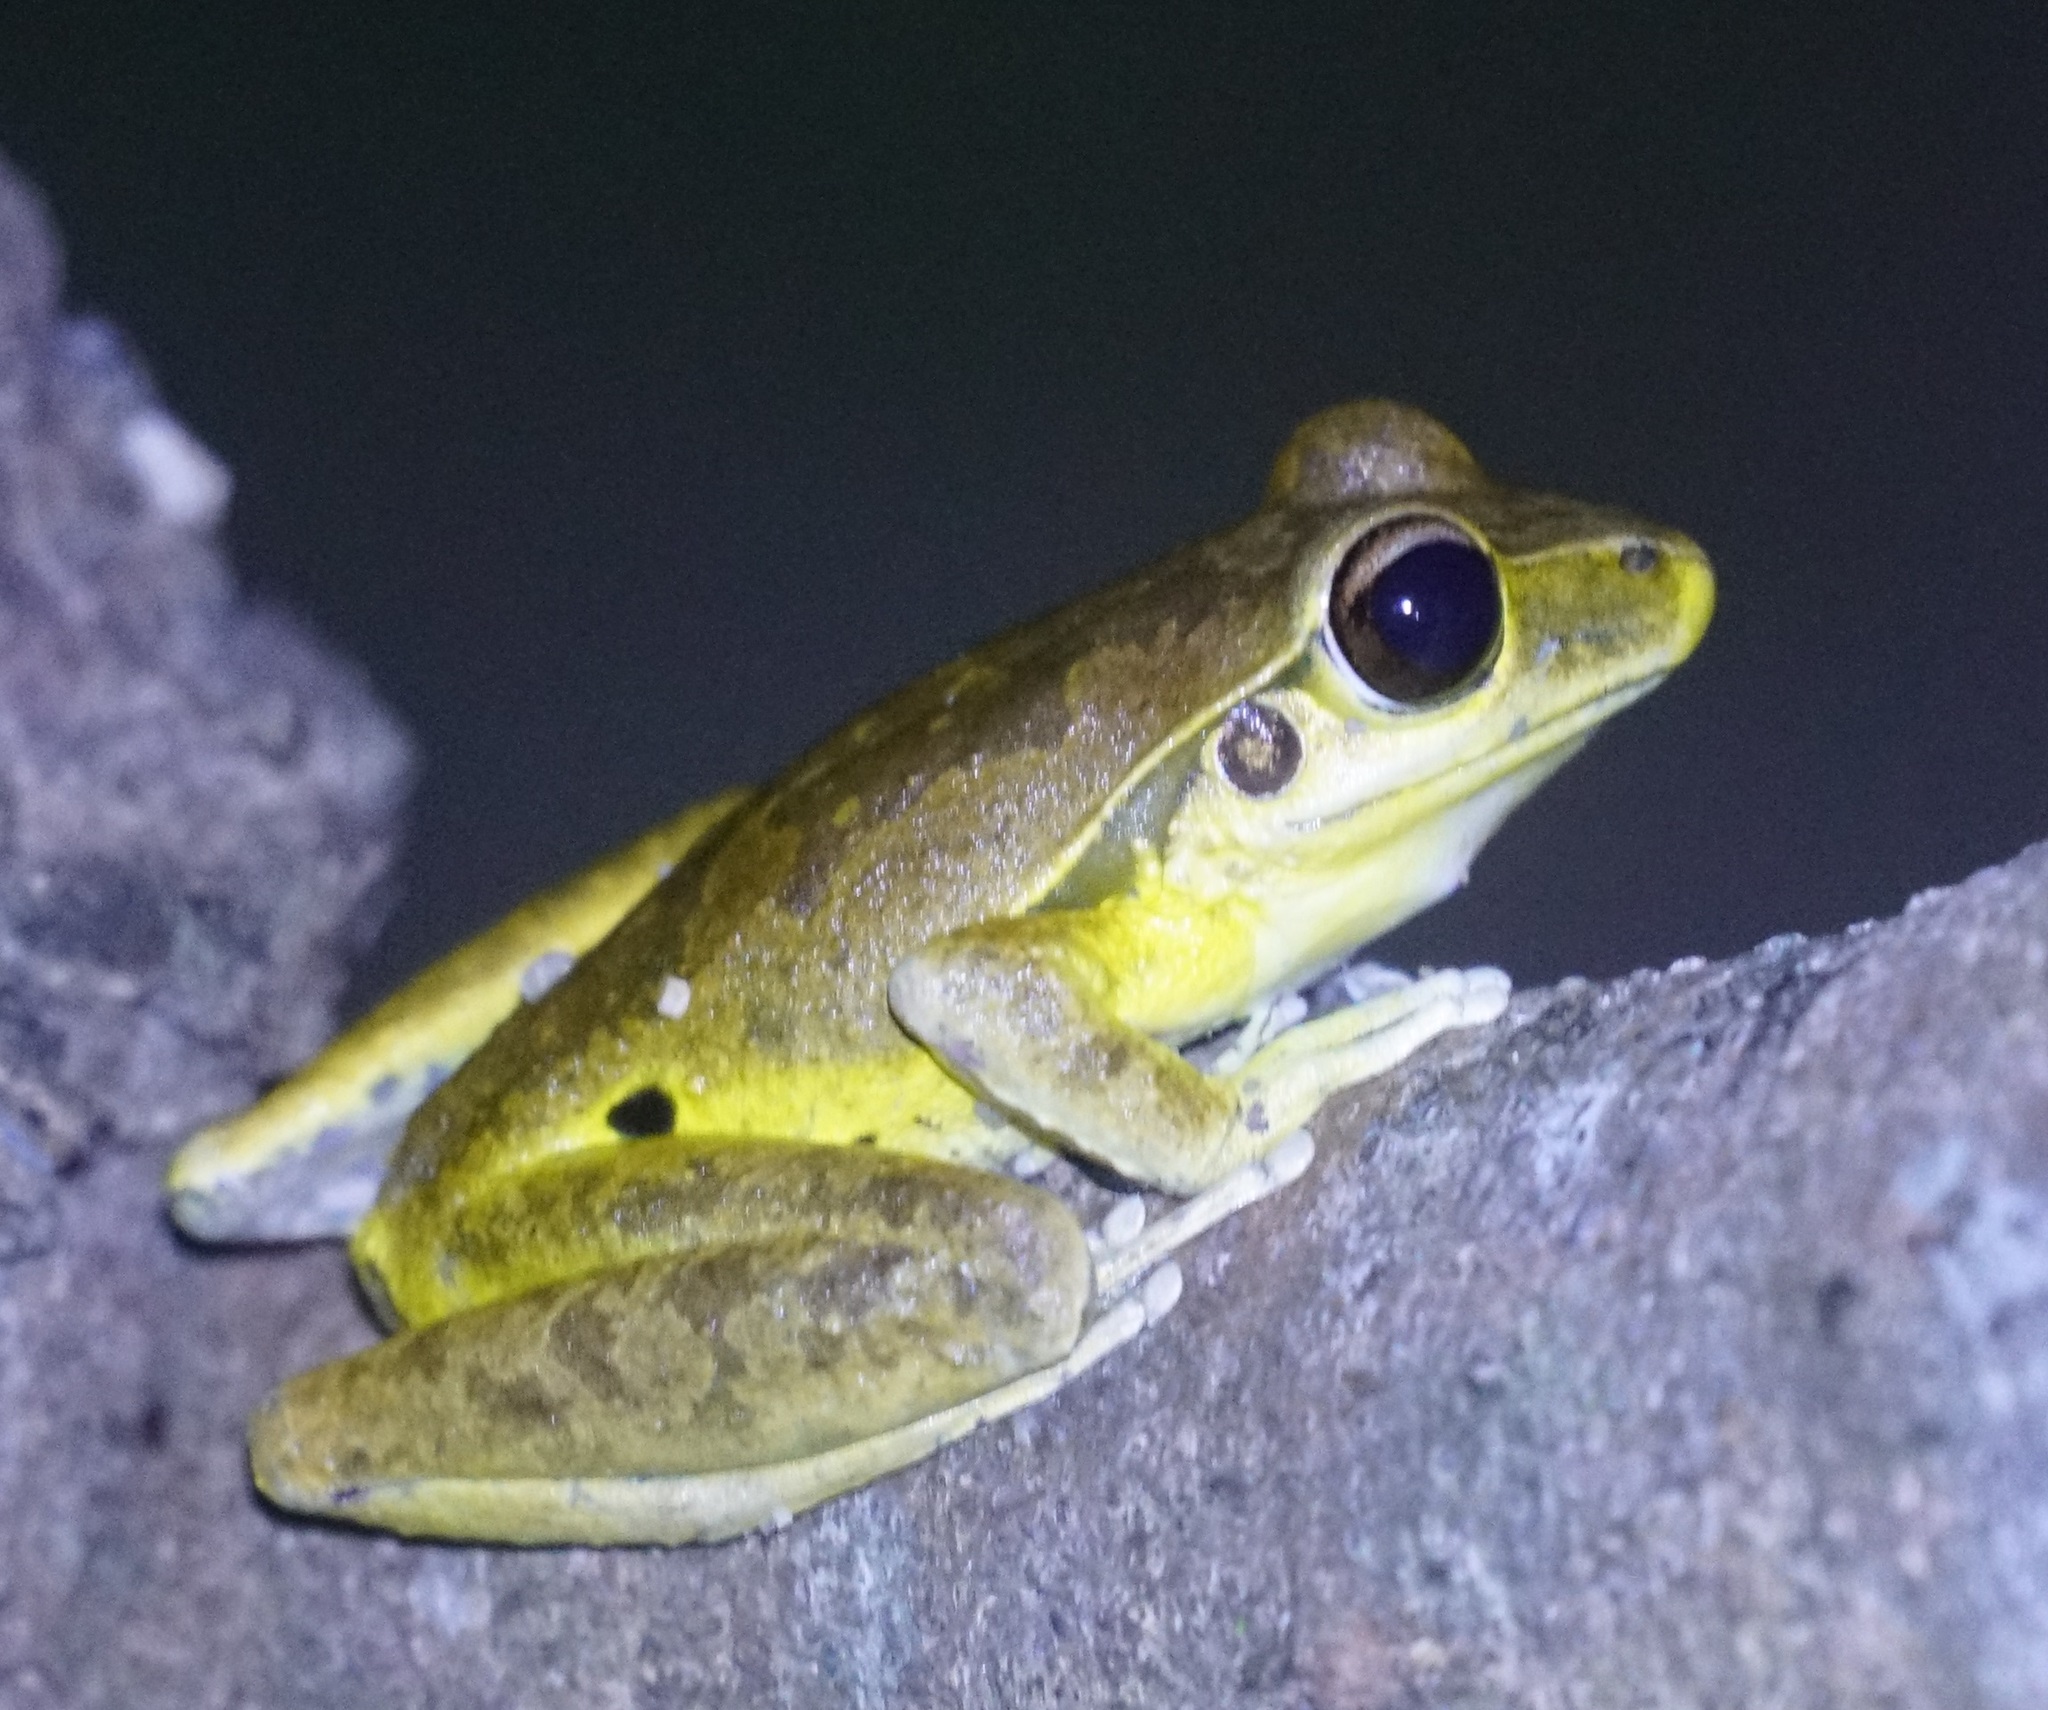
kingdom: Animalia
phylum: Chordata
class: Amphibia
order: Anura
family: Hylidae
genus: Ranoidea
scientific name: Ranoidea
